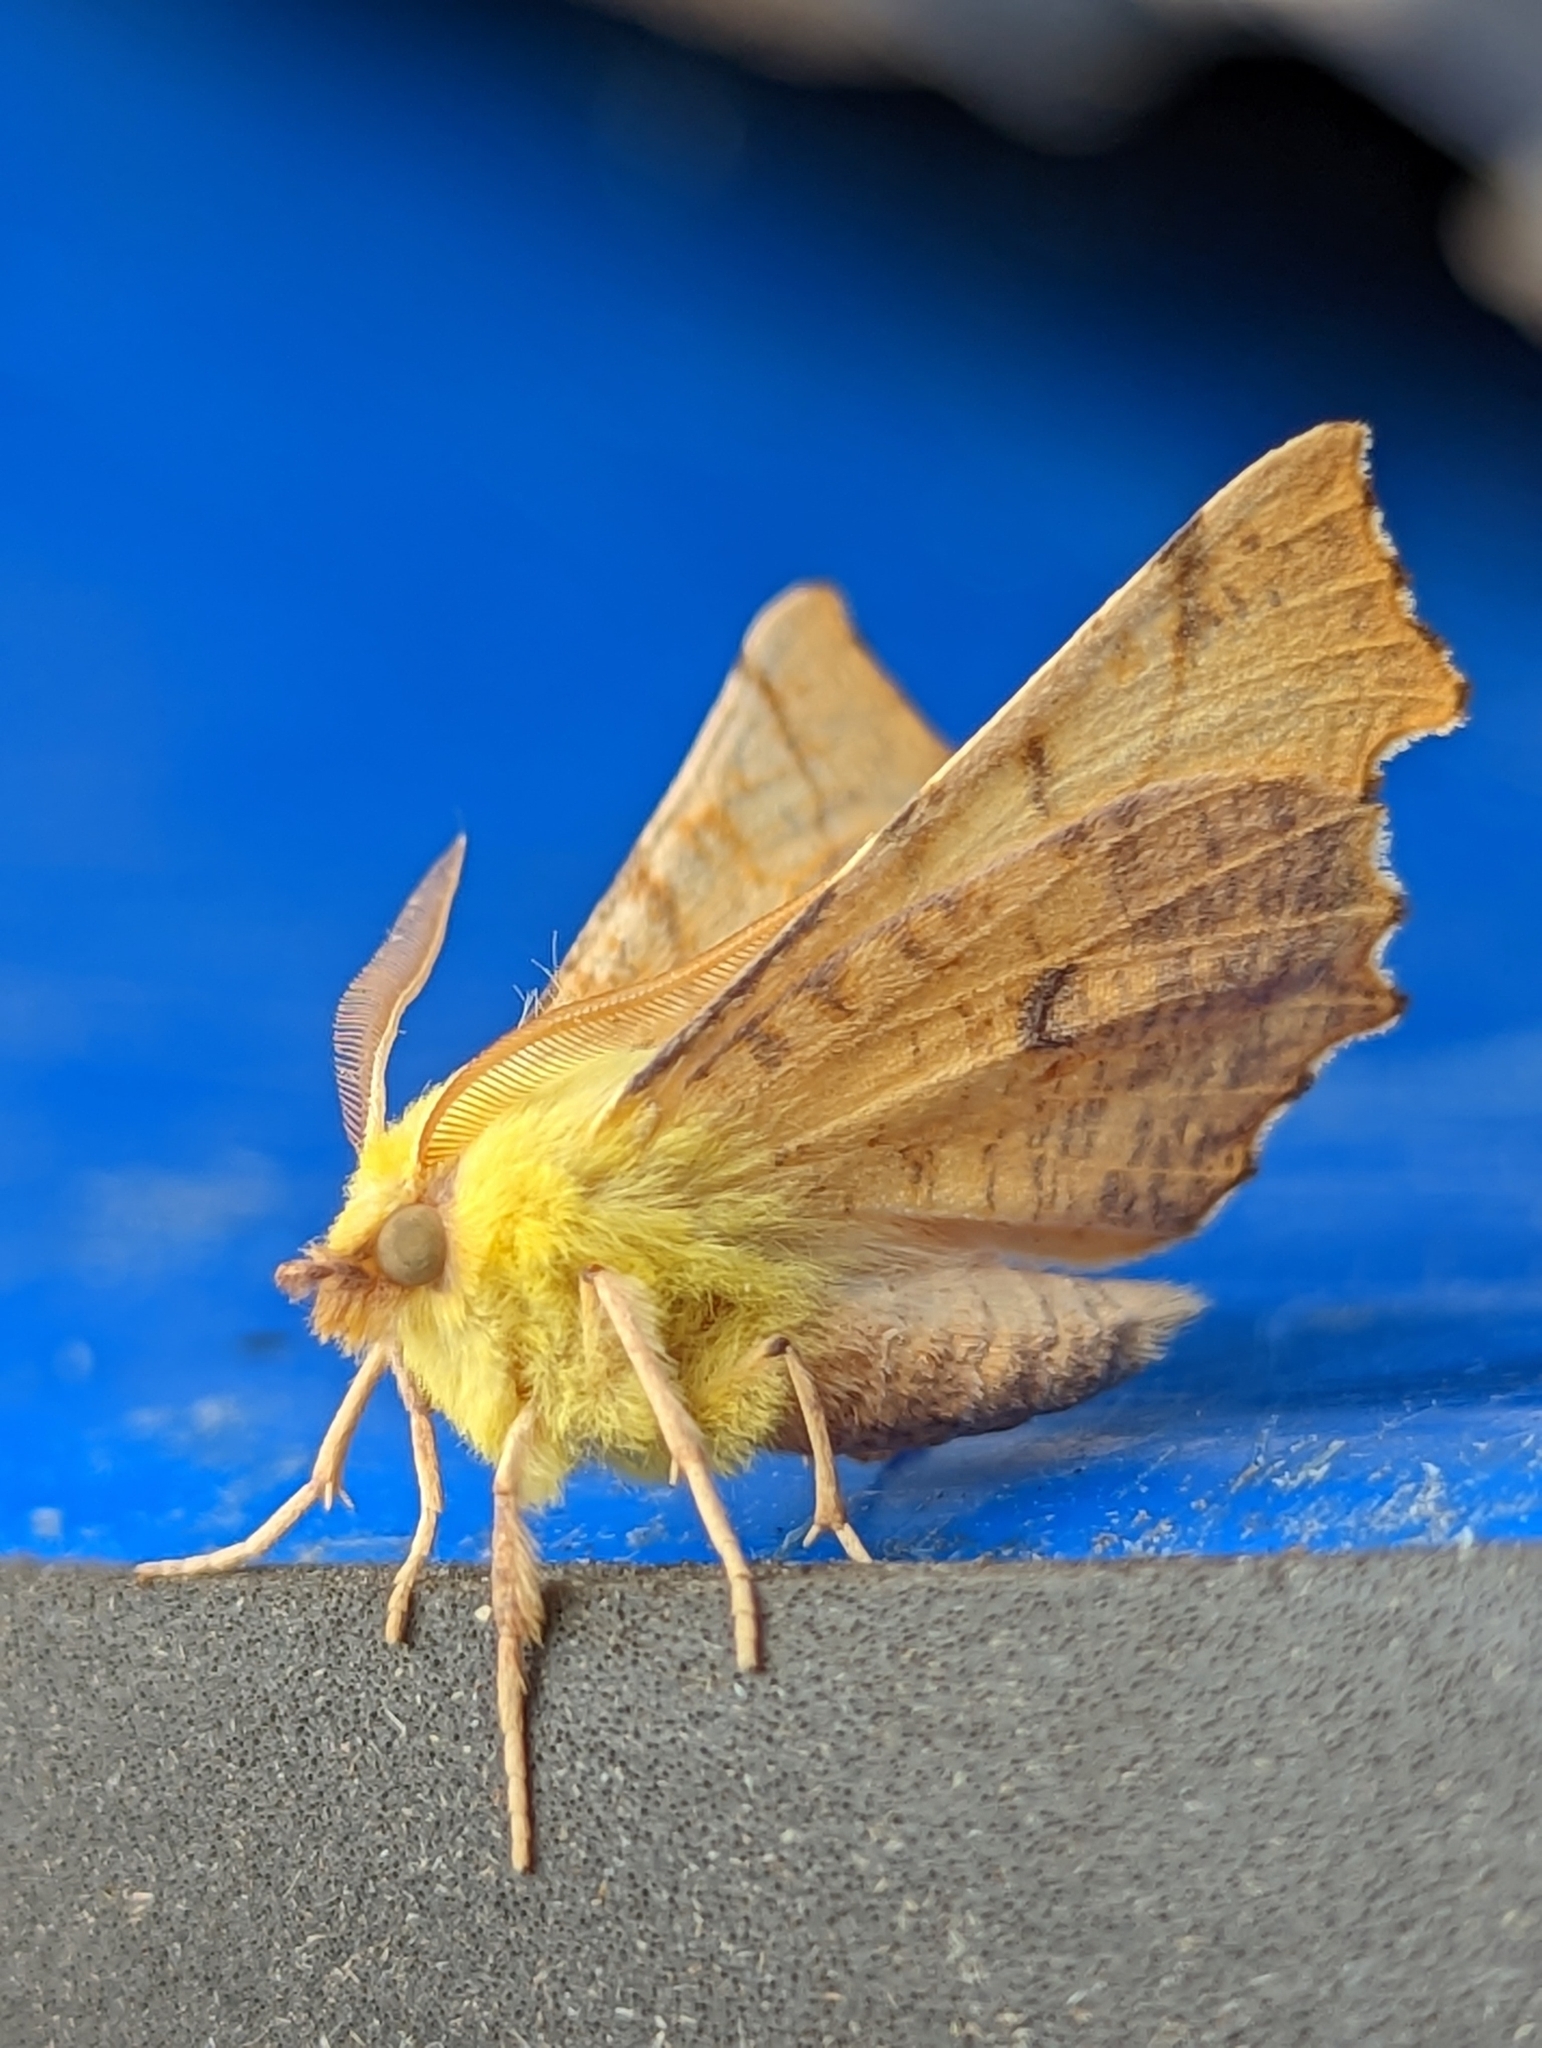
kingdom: Animalia
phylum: Arthropoda
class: Insecta
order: Lepidoptera
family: Geometridae
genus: Ennomos
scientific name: Ennomos alniaria
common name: Canary-shouldered thorn
